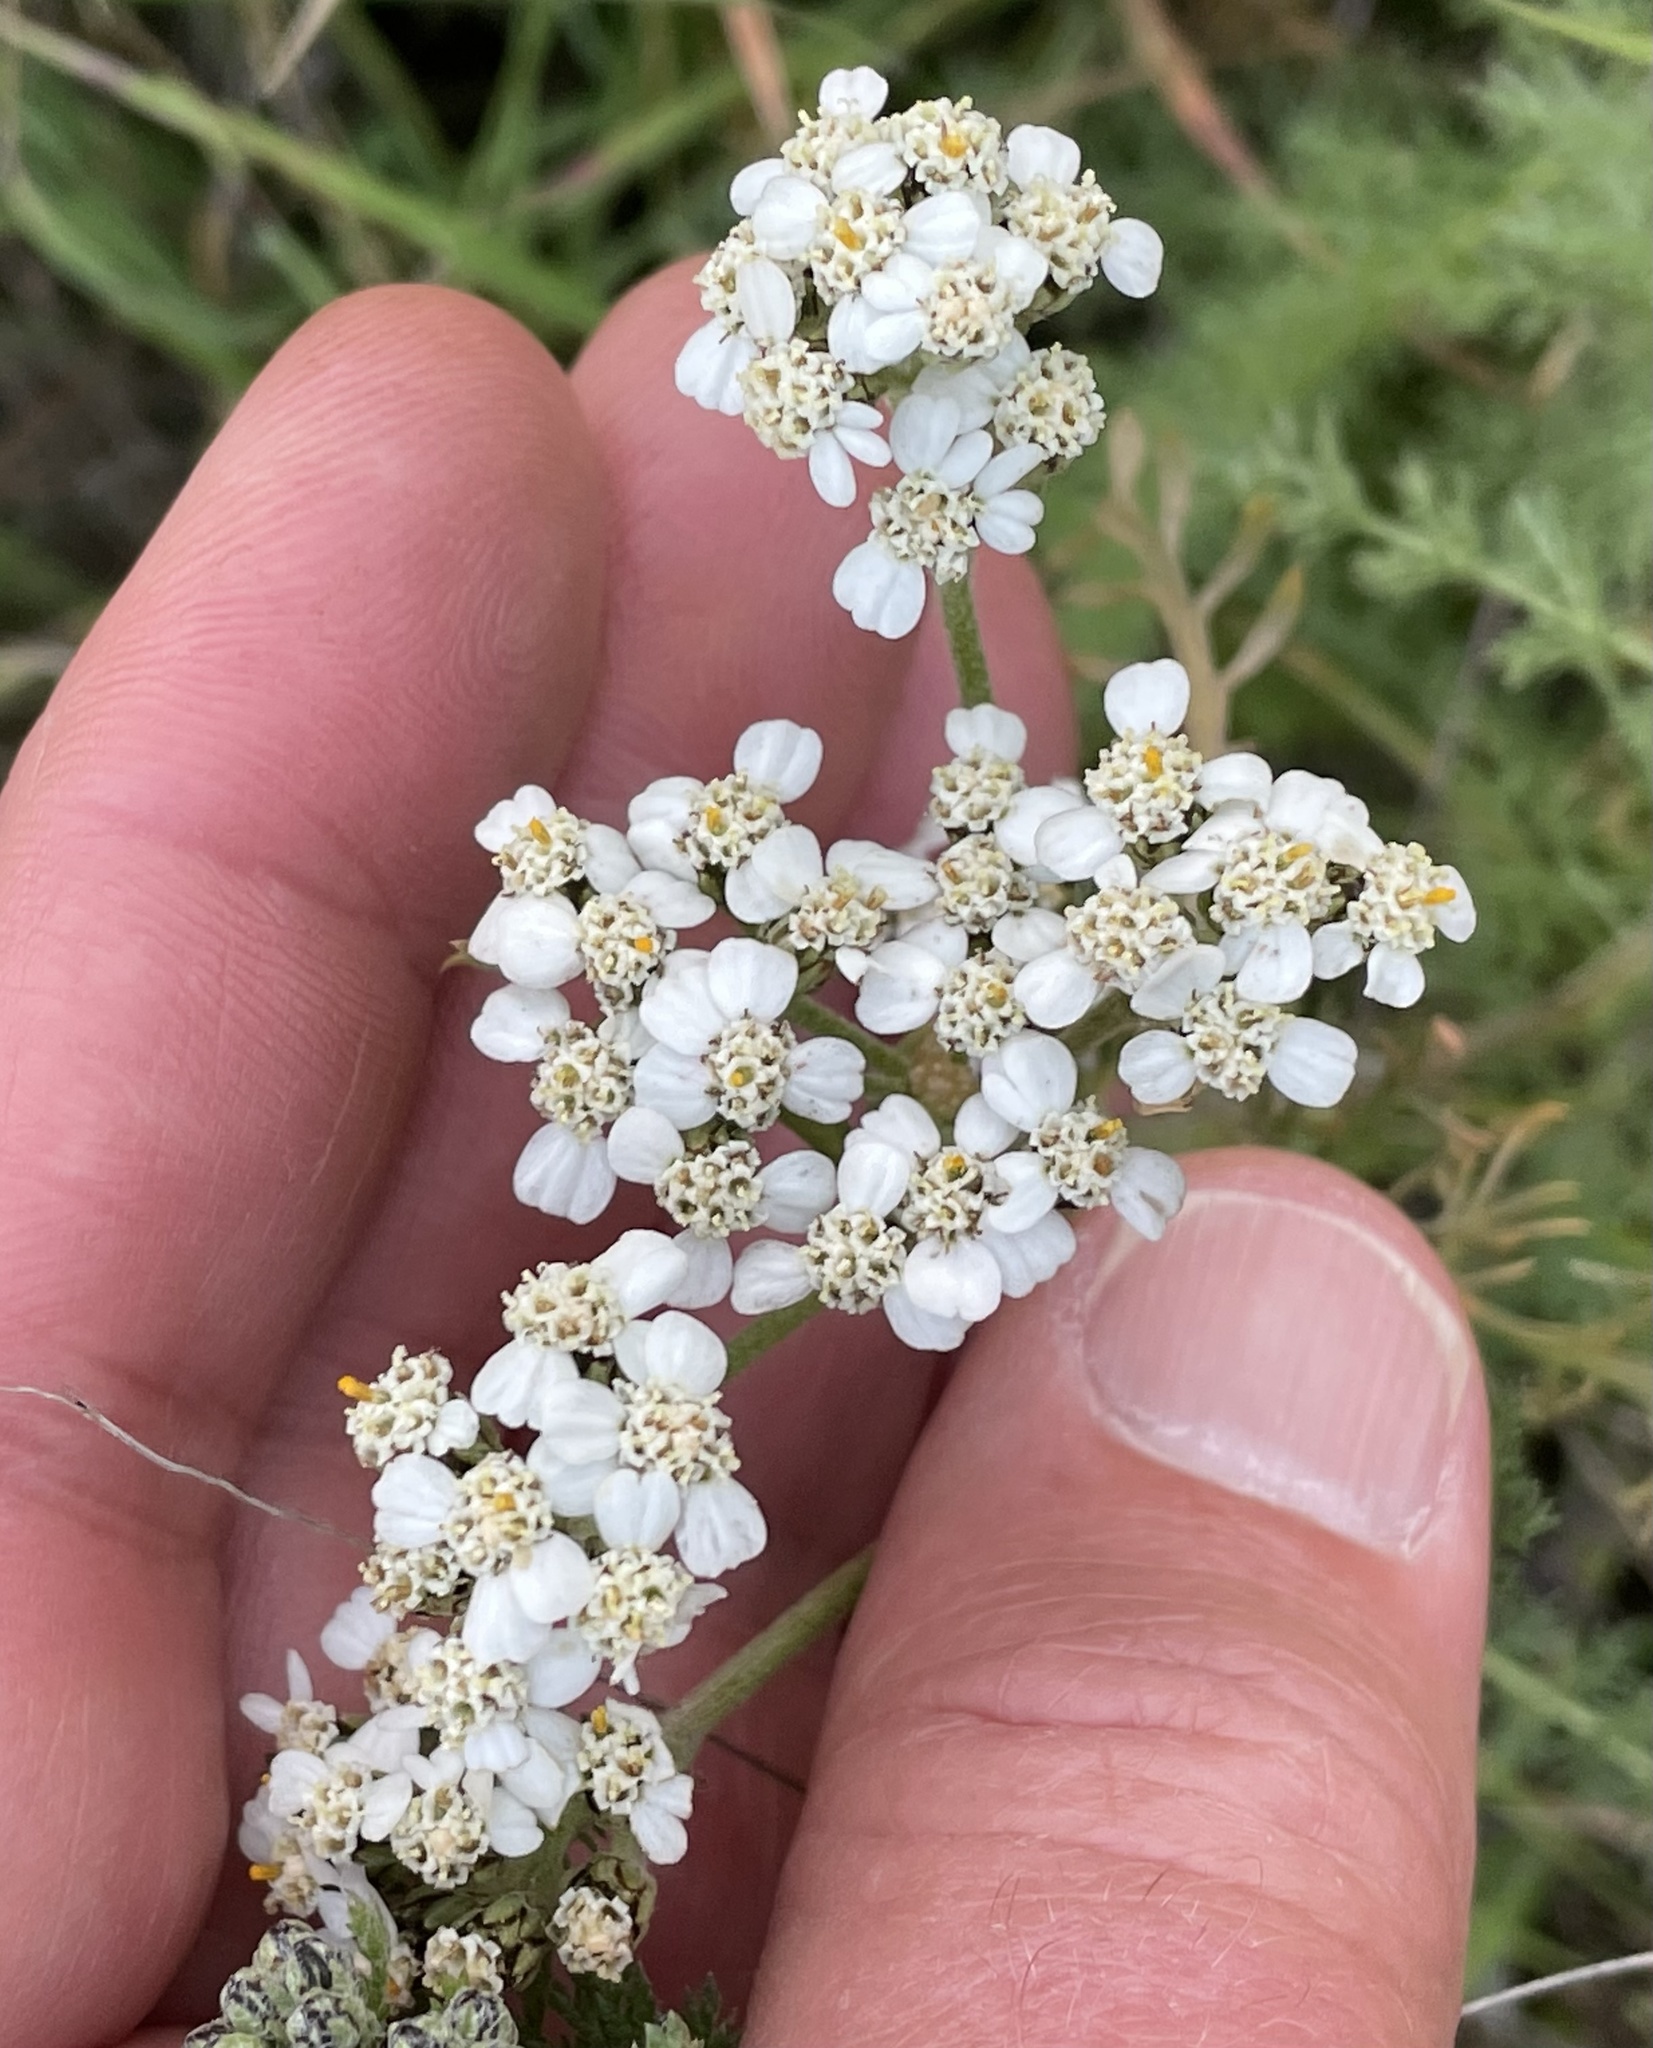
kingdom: Plantae
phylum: Tracheophyta
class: Magnoliopsida
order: Asterales
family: Asteraceae
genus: Achillea
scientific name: Achillea millefolium
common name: Yarrow
